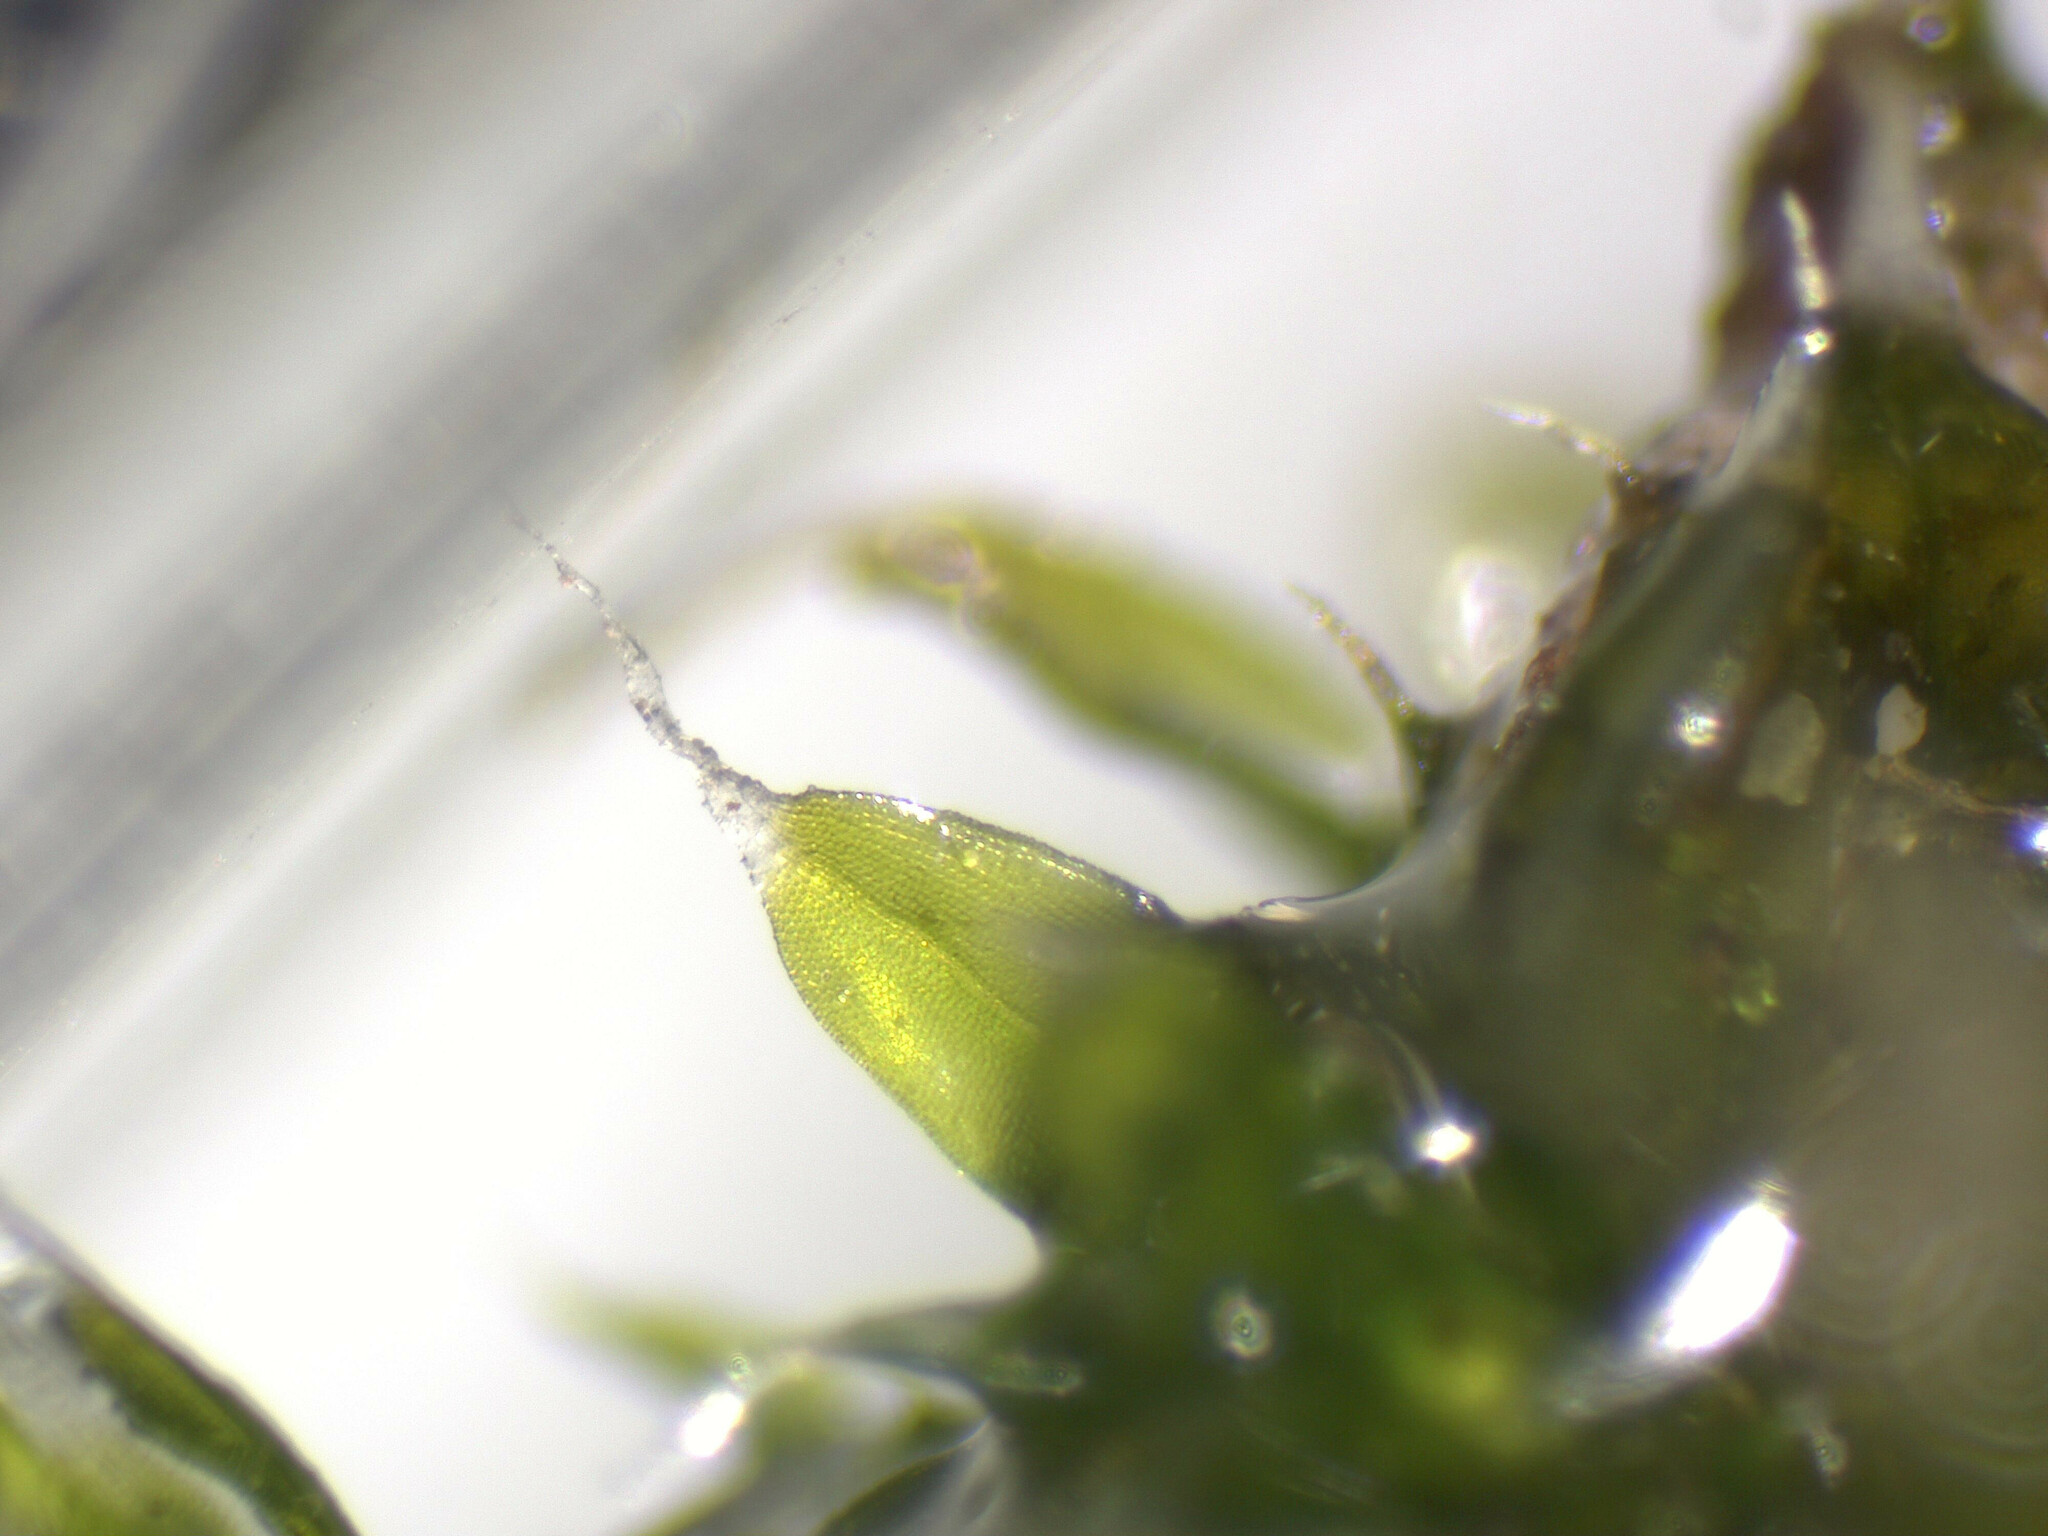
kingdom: Plantae
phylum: Bryophyta
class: Bryopsida
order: Orthotrichales
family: Orthotrichaceae
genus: Orthotrichum
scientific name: Orthotrichum diaphanum
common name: White-tipped bristle-moss
